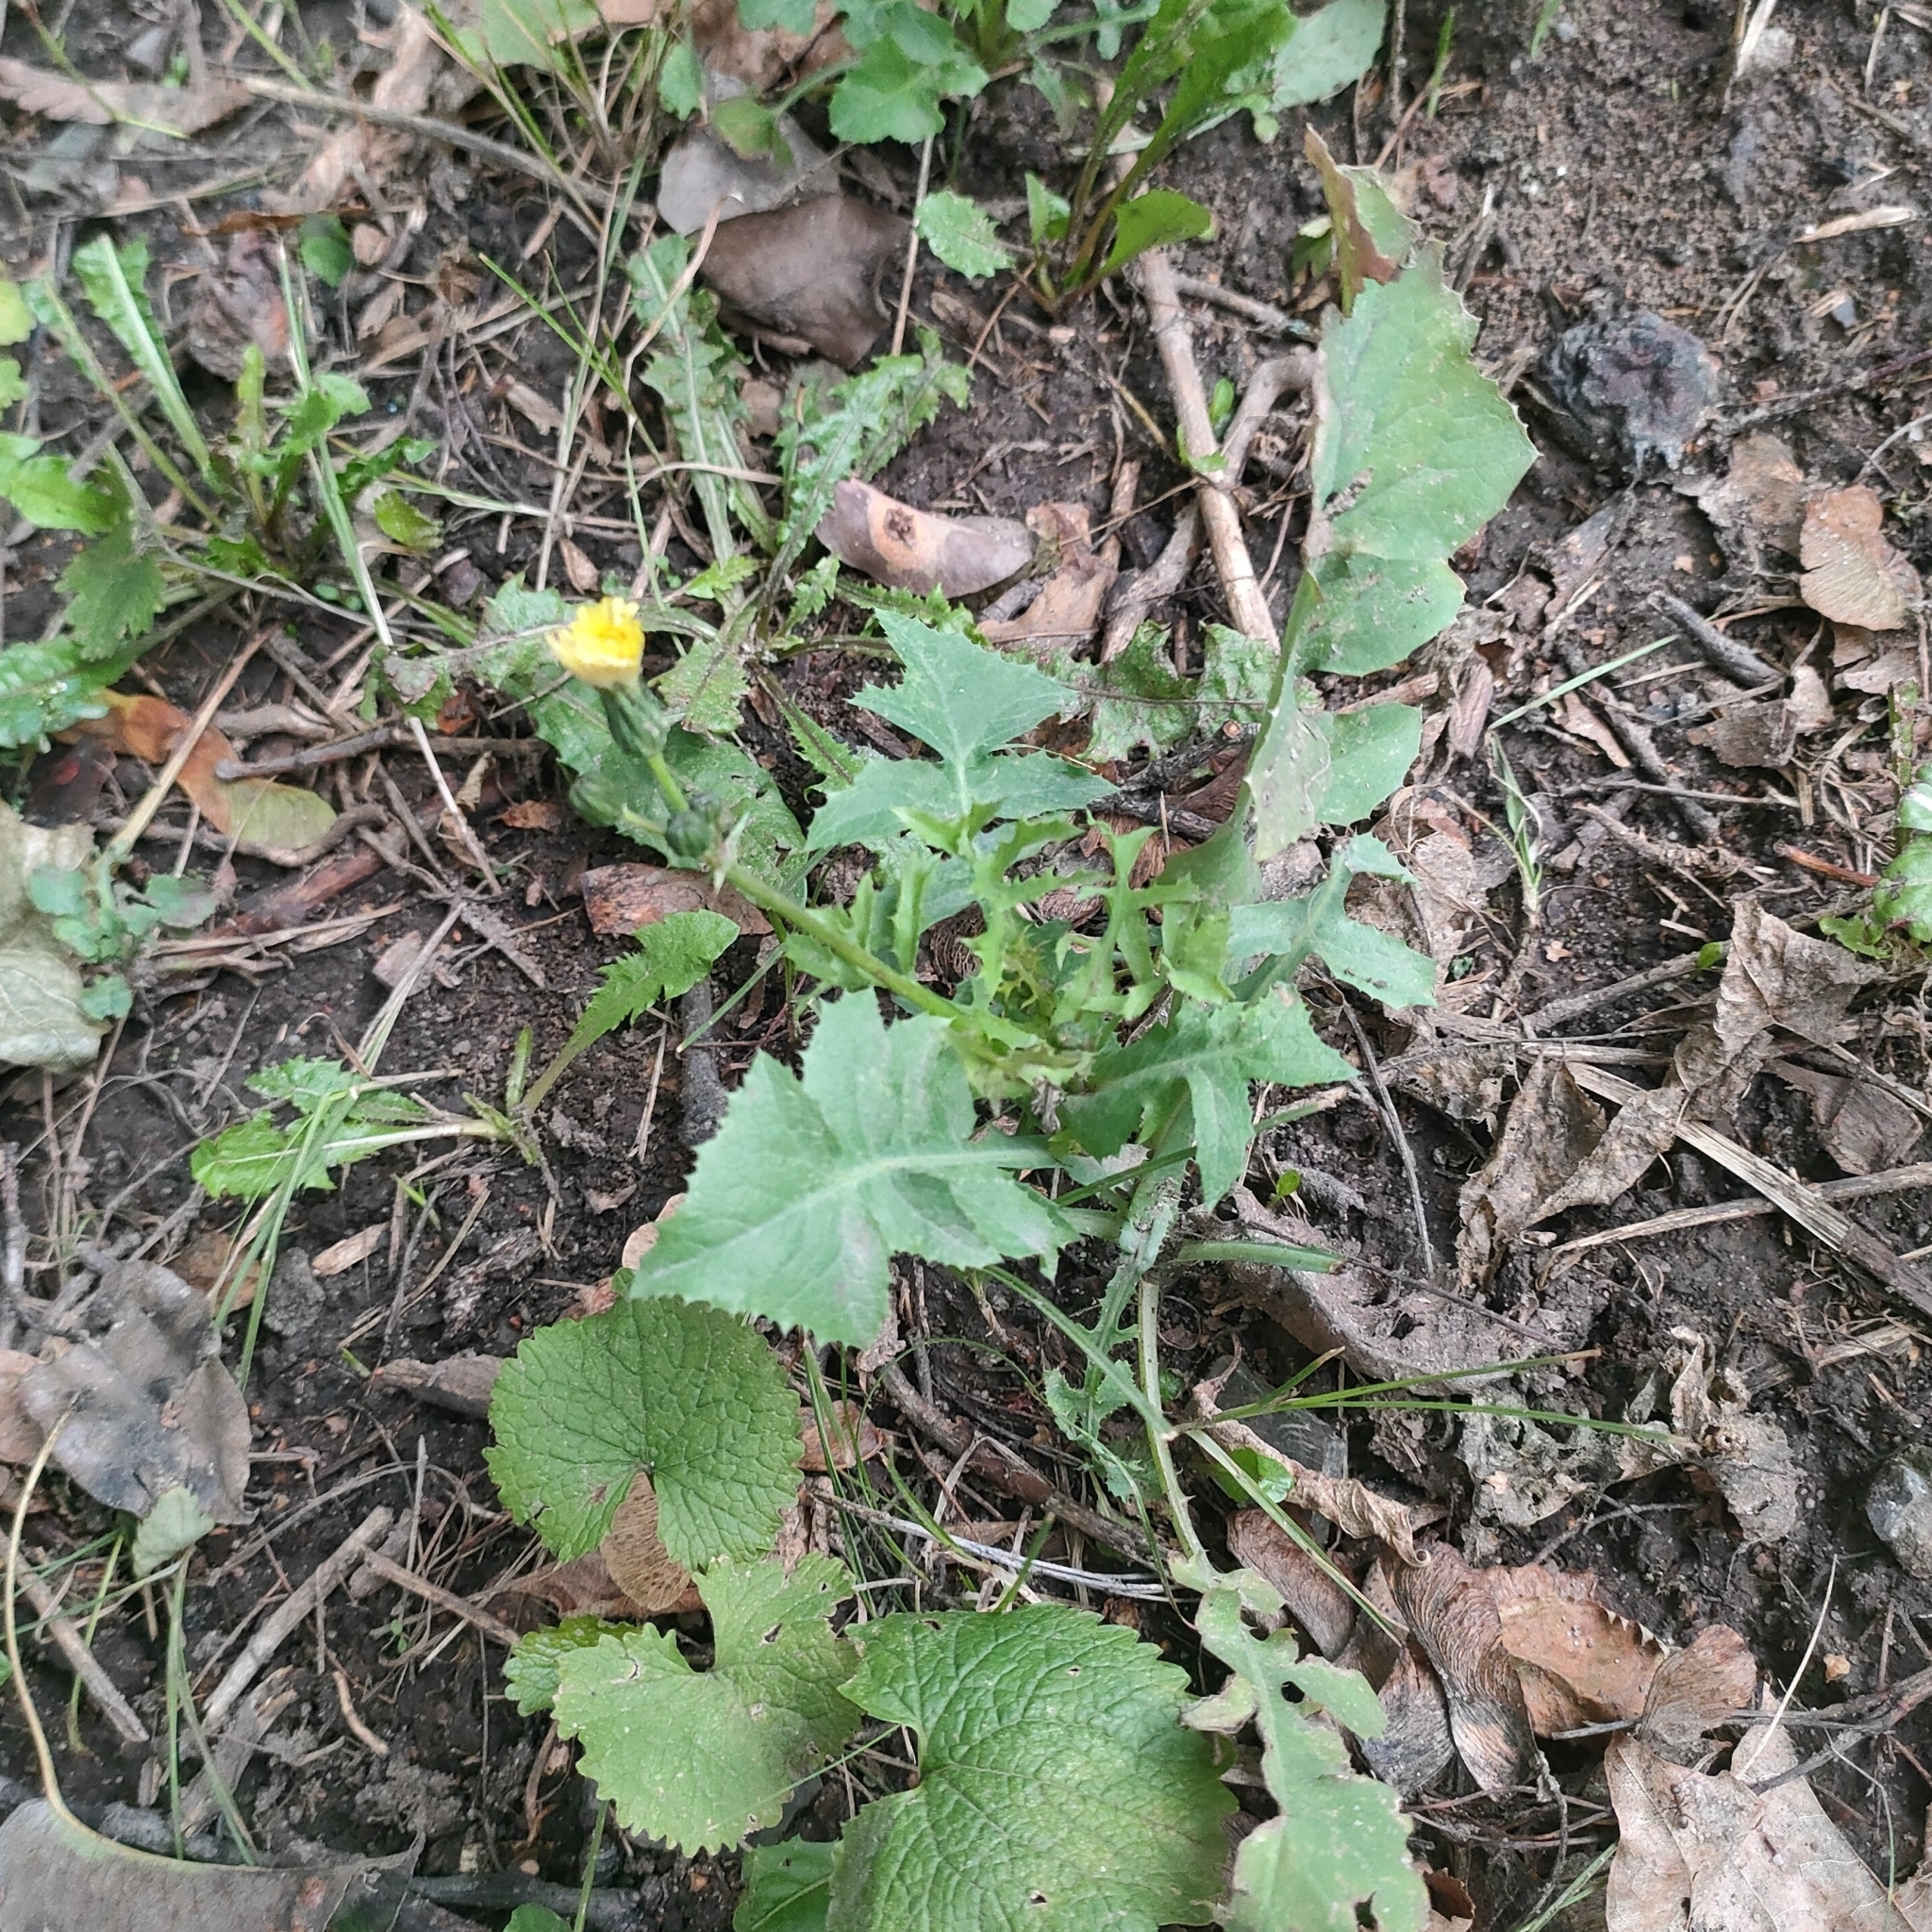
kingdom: Plantae
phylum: Tracheophyta
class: Magnoliopsida
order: Asterales
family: Asteraceae
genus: Sonchus
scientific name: Sonchus oleraceus
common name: Common sowthistle
